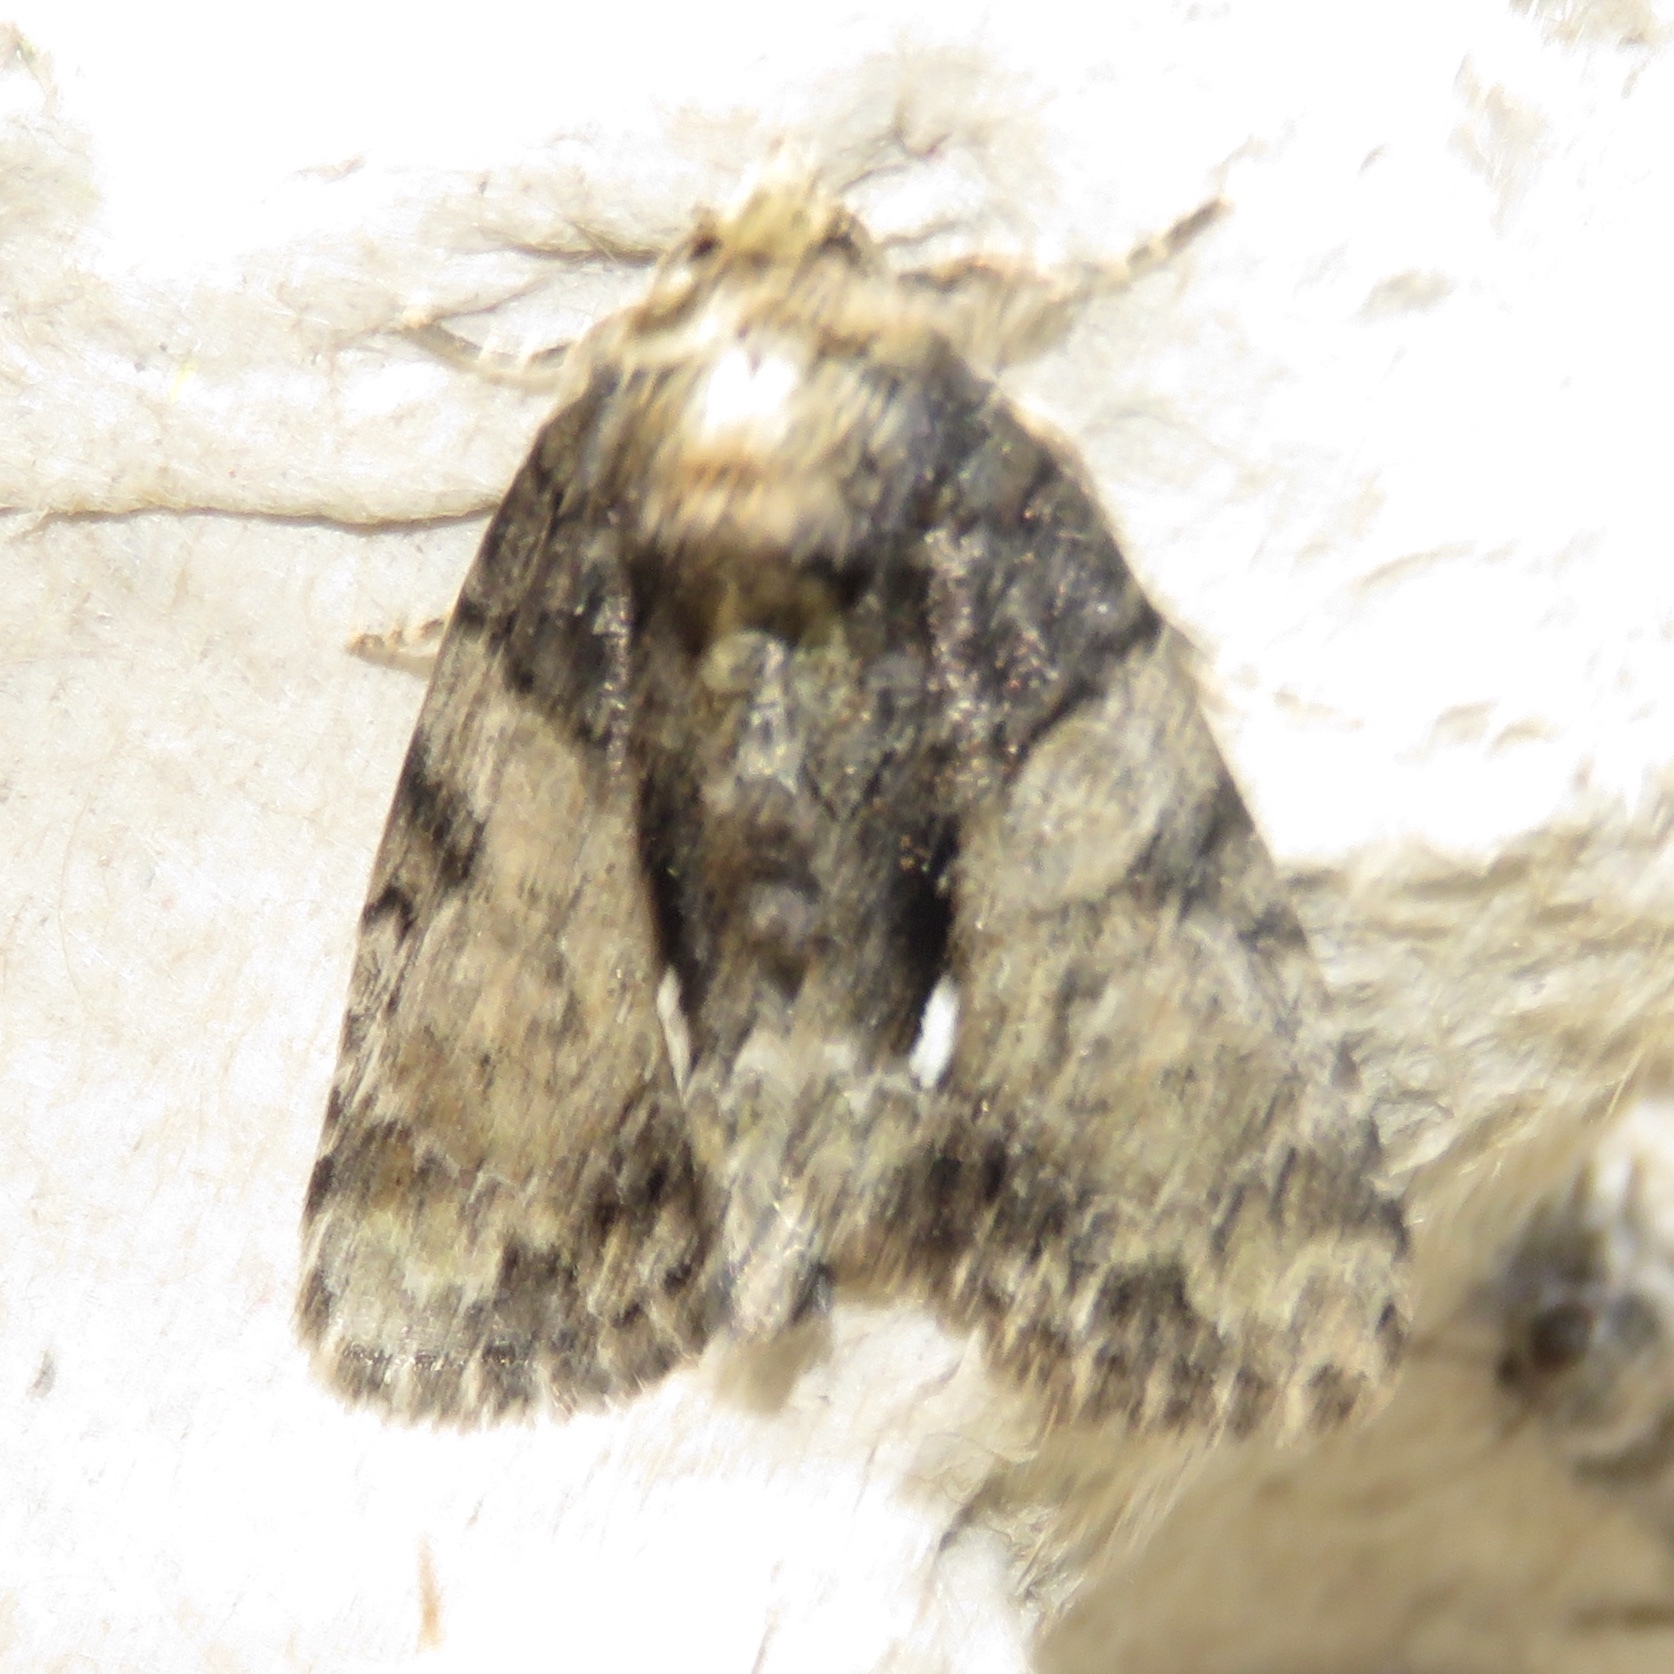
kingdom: Animalia
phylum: Arthropoda
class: Insecta
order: Lepidoptera
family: Noctuidae
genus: Chytonix
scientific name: Chytonix palliatricula
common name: Cloaked marvel
